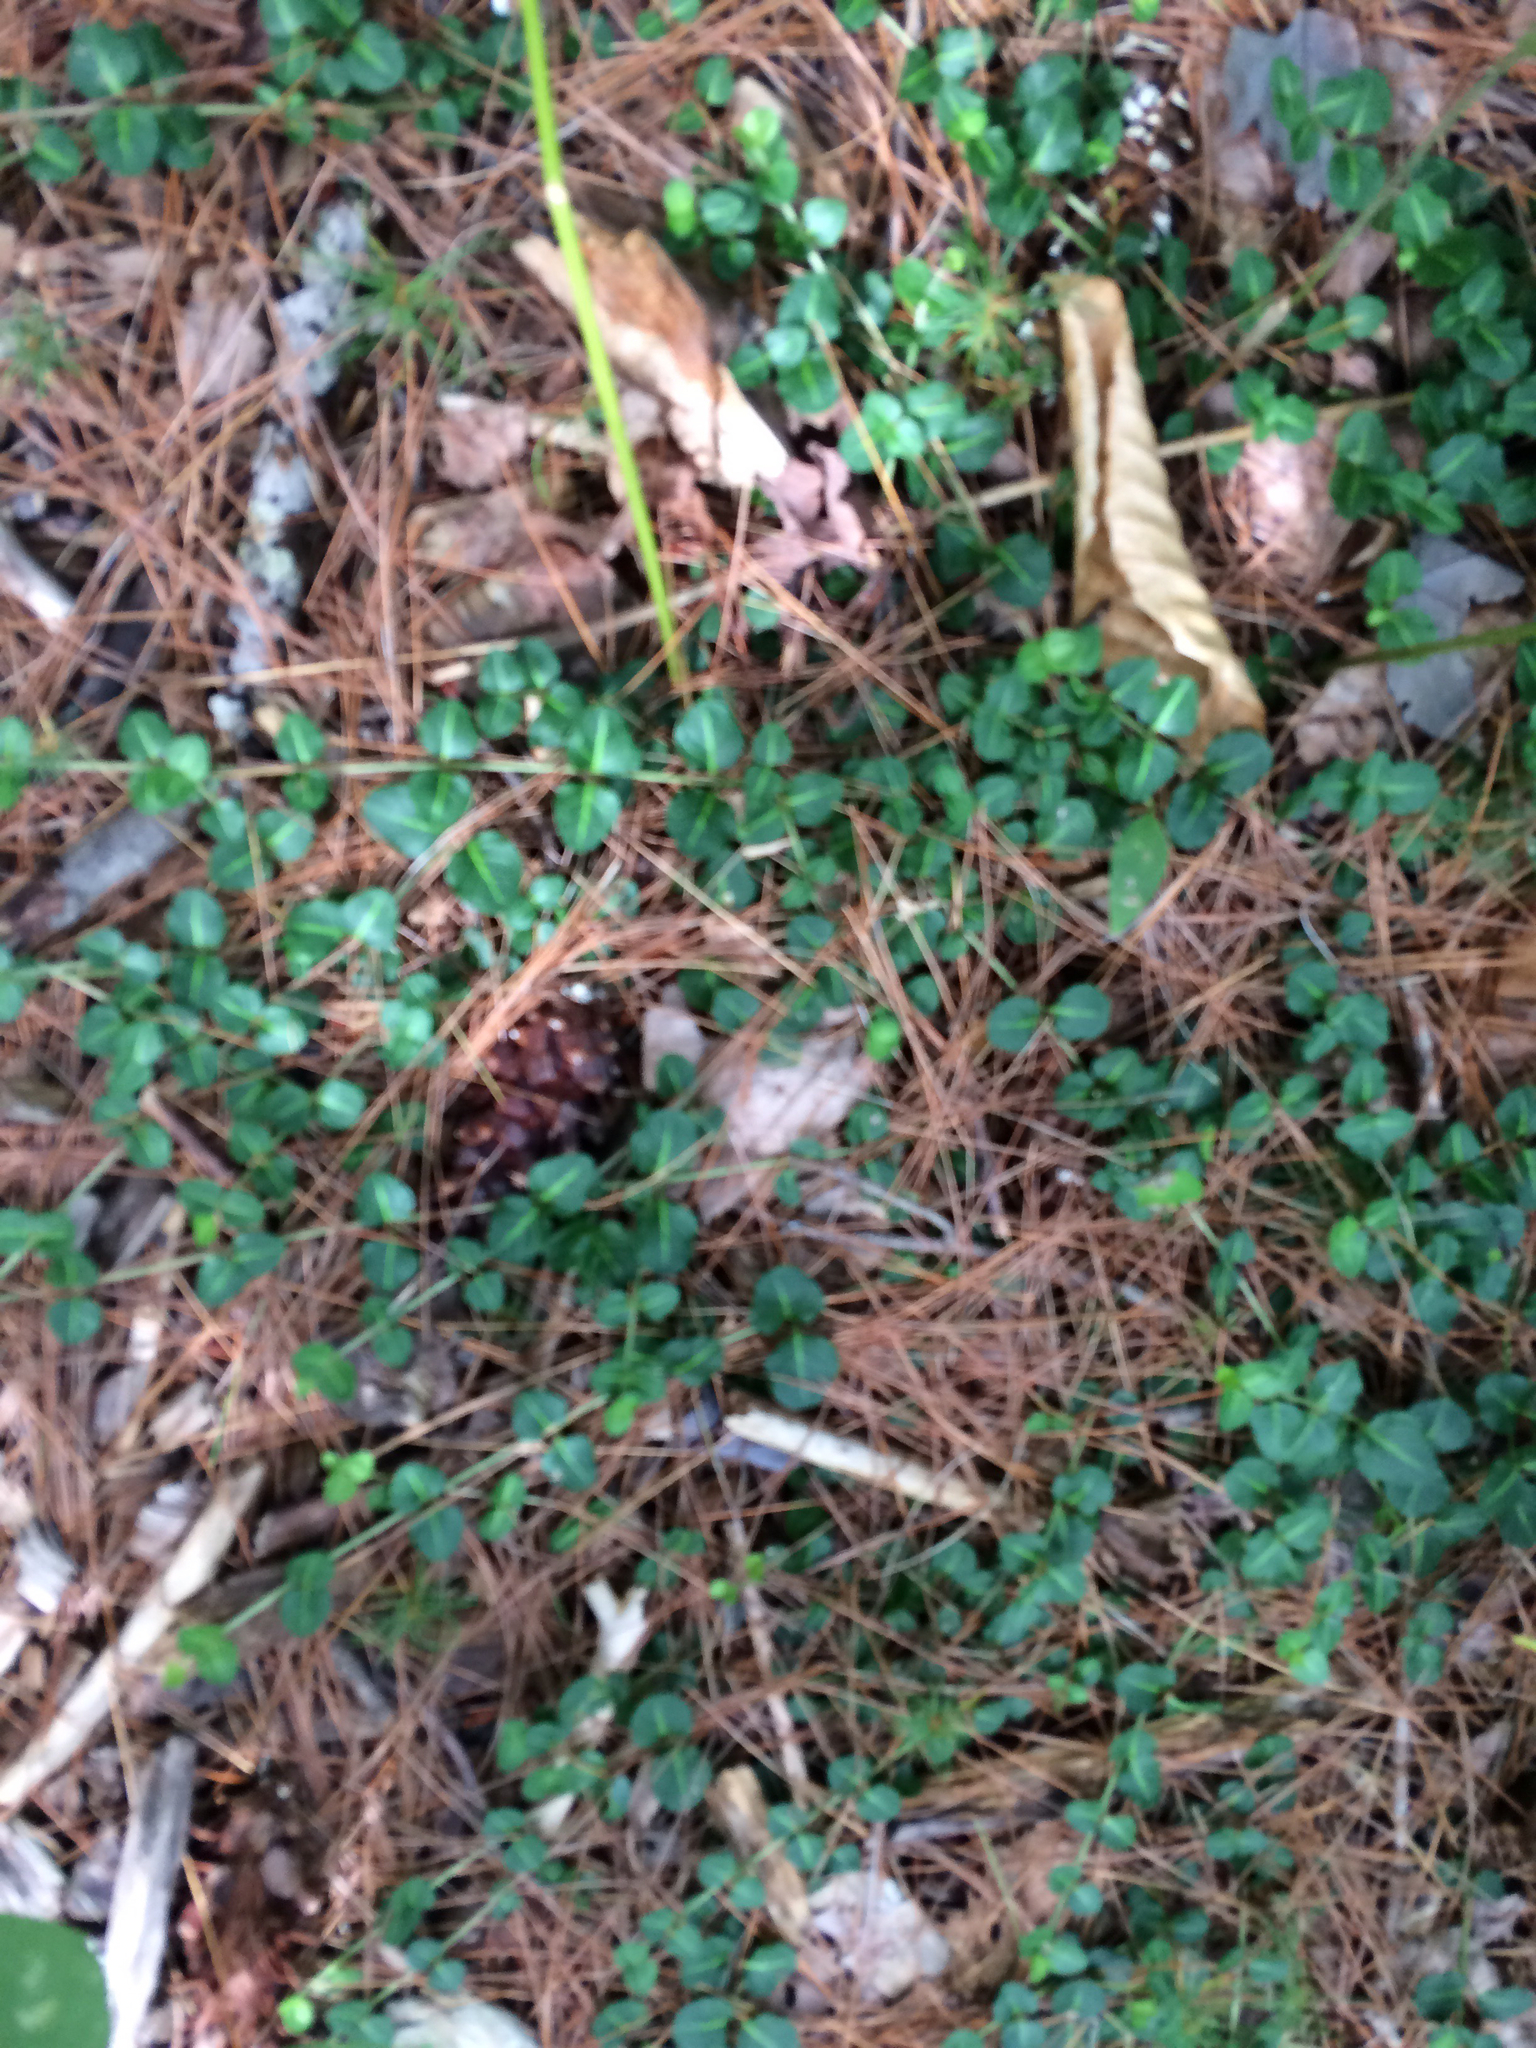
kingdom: Plantae
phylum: Tracheophyta
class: Magnoliopsida
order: Gentianales
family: Rubiaceae
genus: Mitchella
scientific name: Mitchella repens
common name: Partridge-berry
